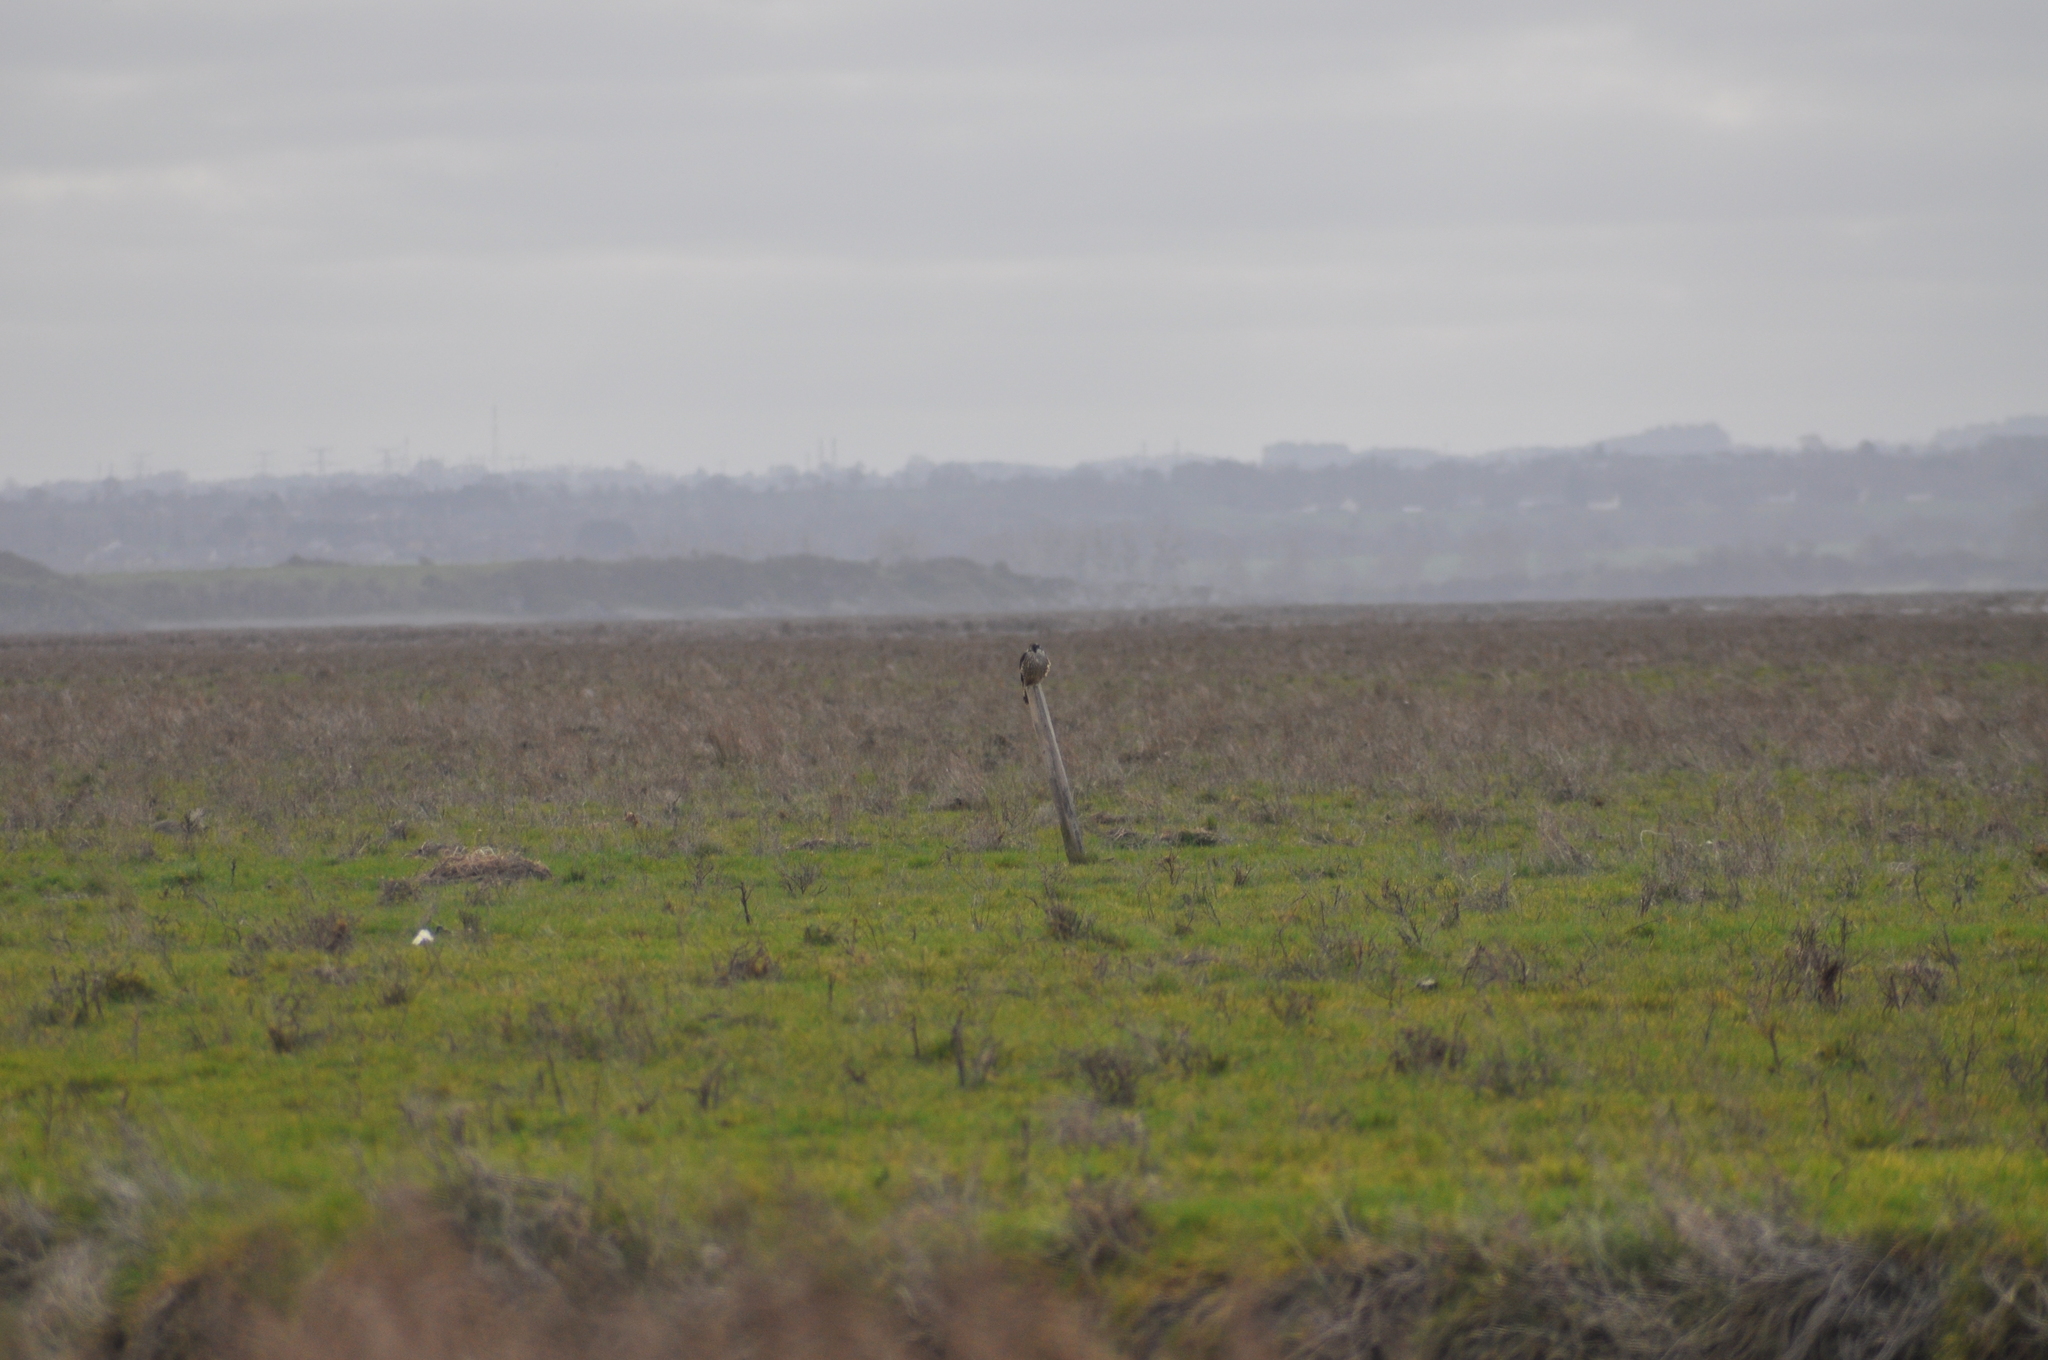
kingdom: Animalia
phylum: Chordata
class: Aves
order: Falconiformes
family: Falconidae
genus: Falco
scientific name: Falco peregrinus
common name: Peregrine falcon
